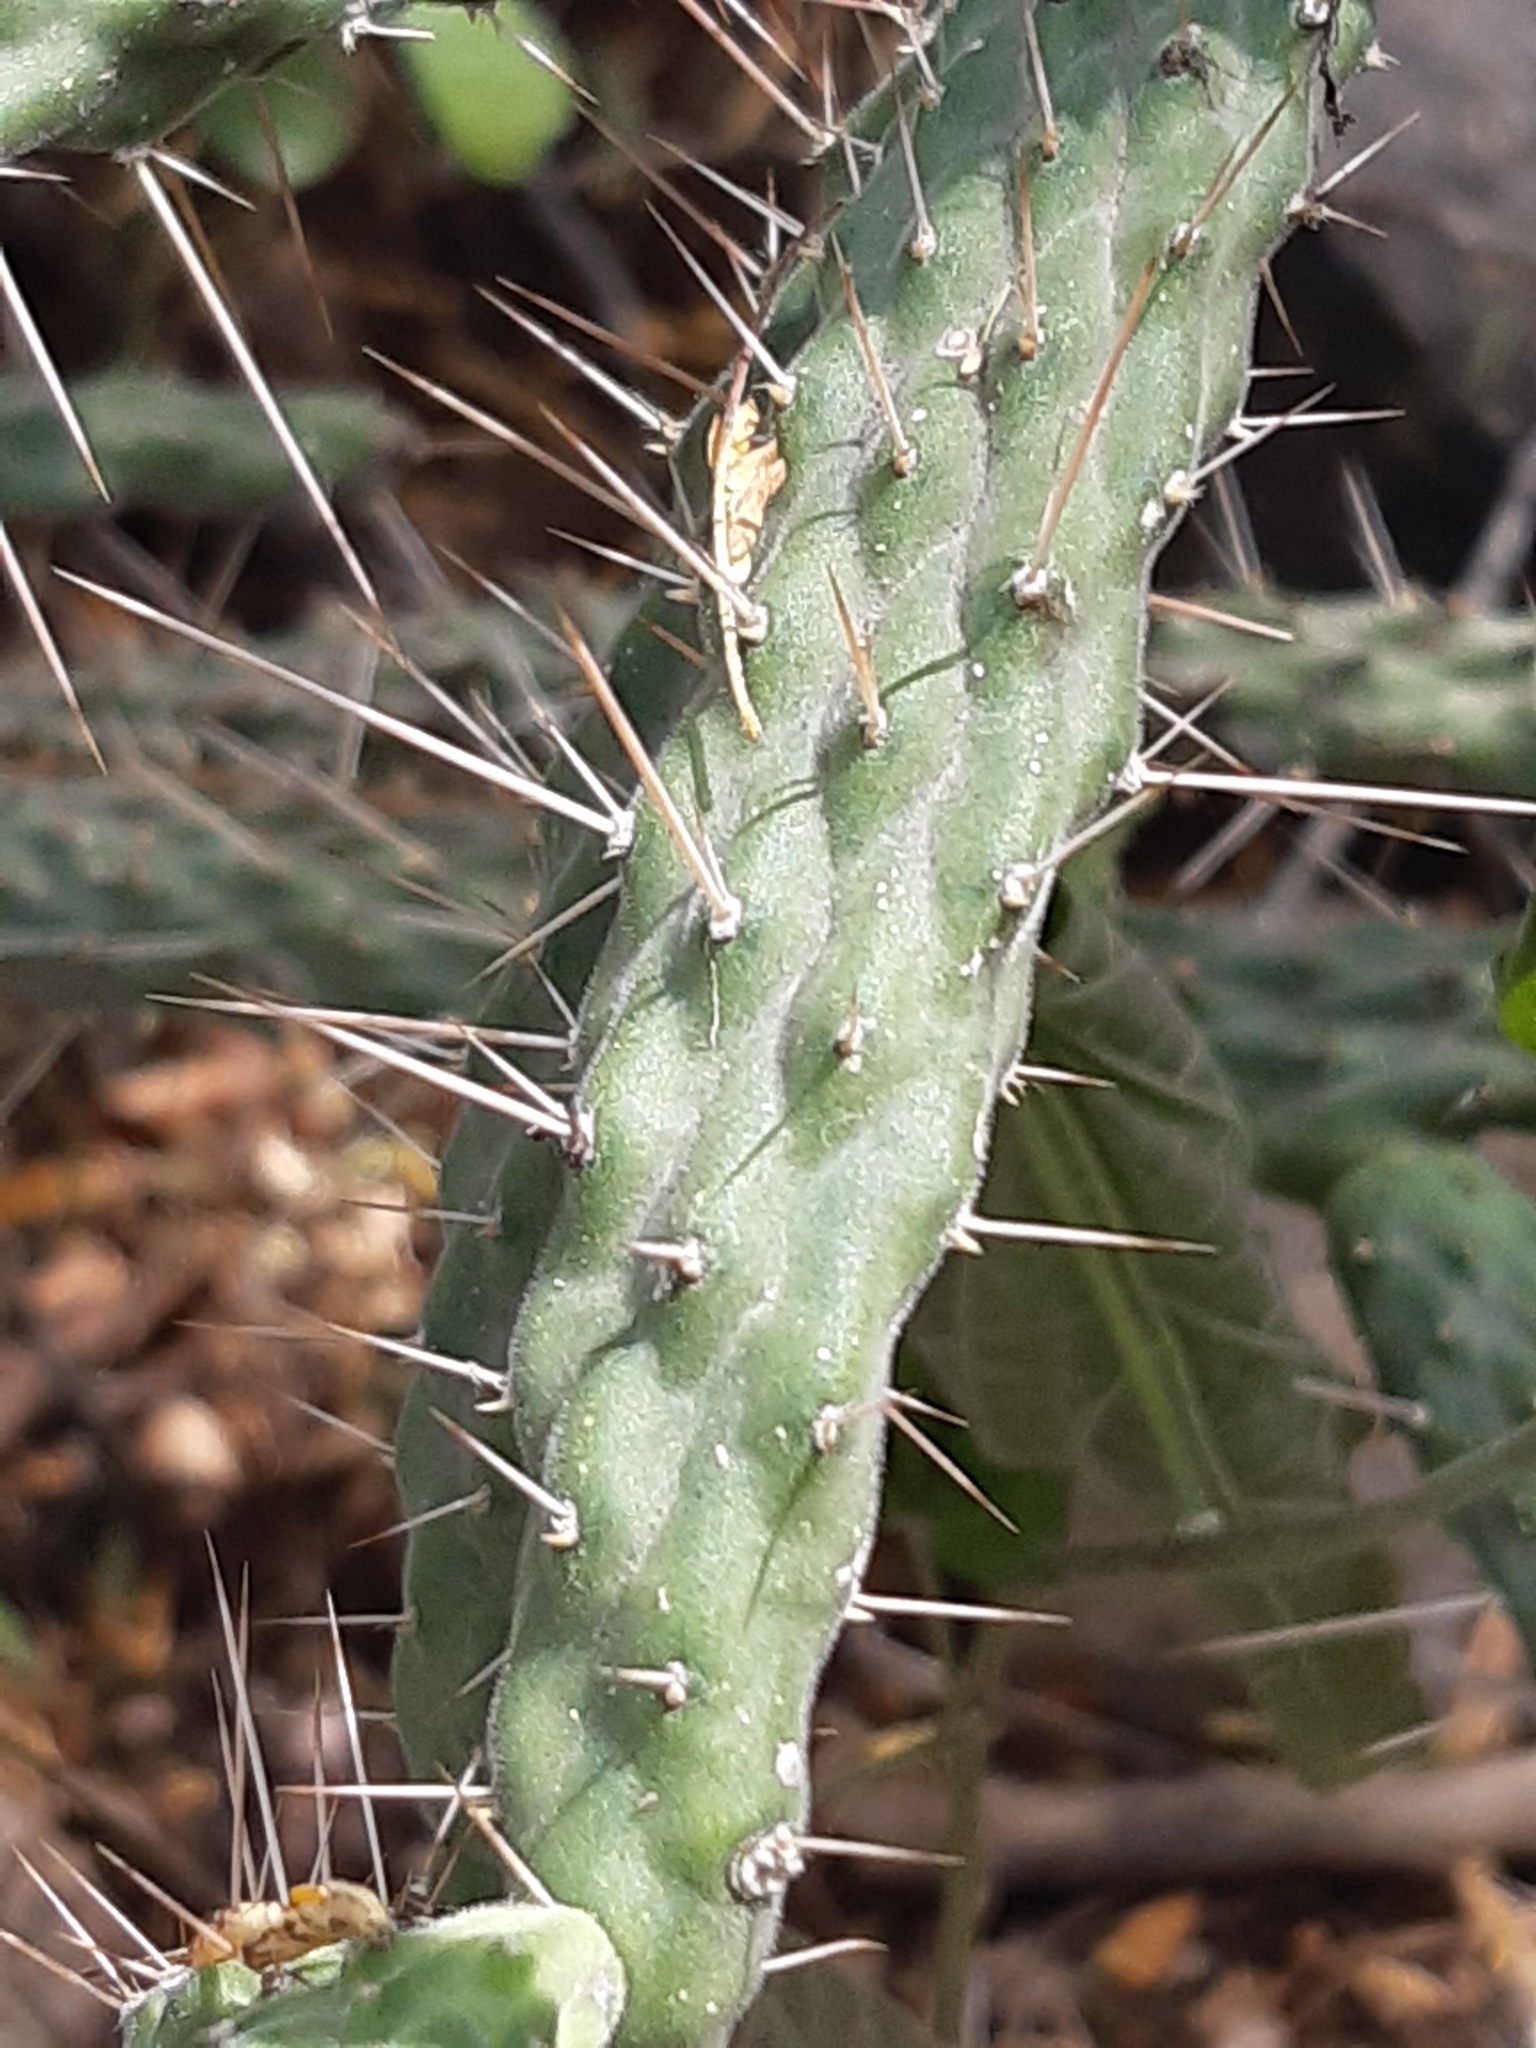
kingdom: Plantae
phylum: Tracheophyta
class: Magnoliopsida
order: Caryophyllales
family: Cactaceae
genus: Opuntia
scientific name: Opuntia pubescens
